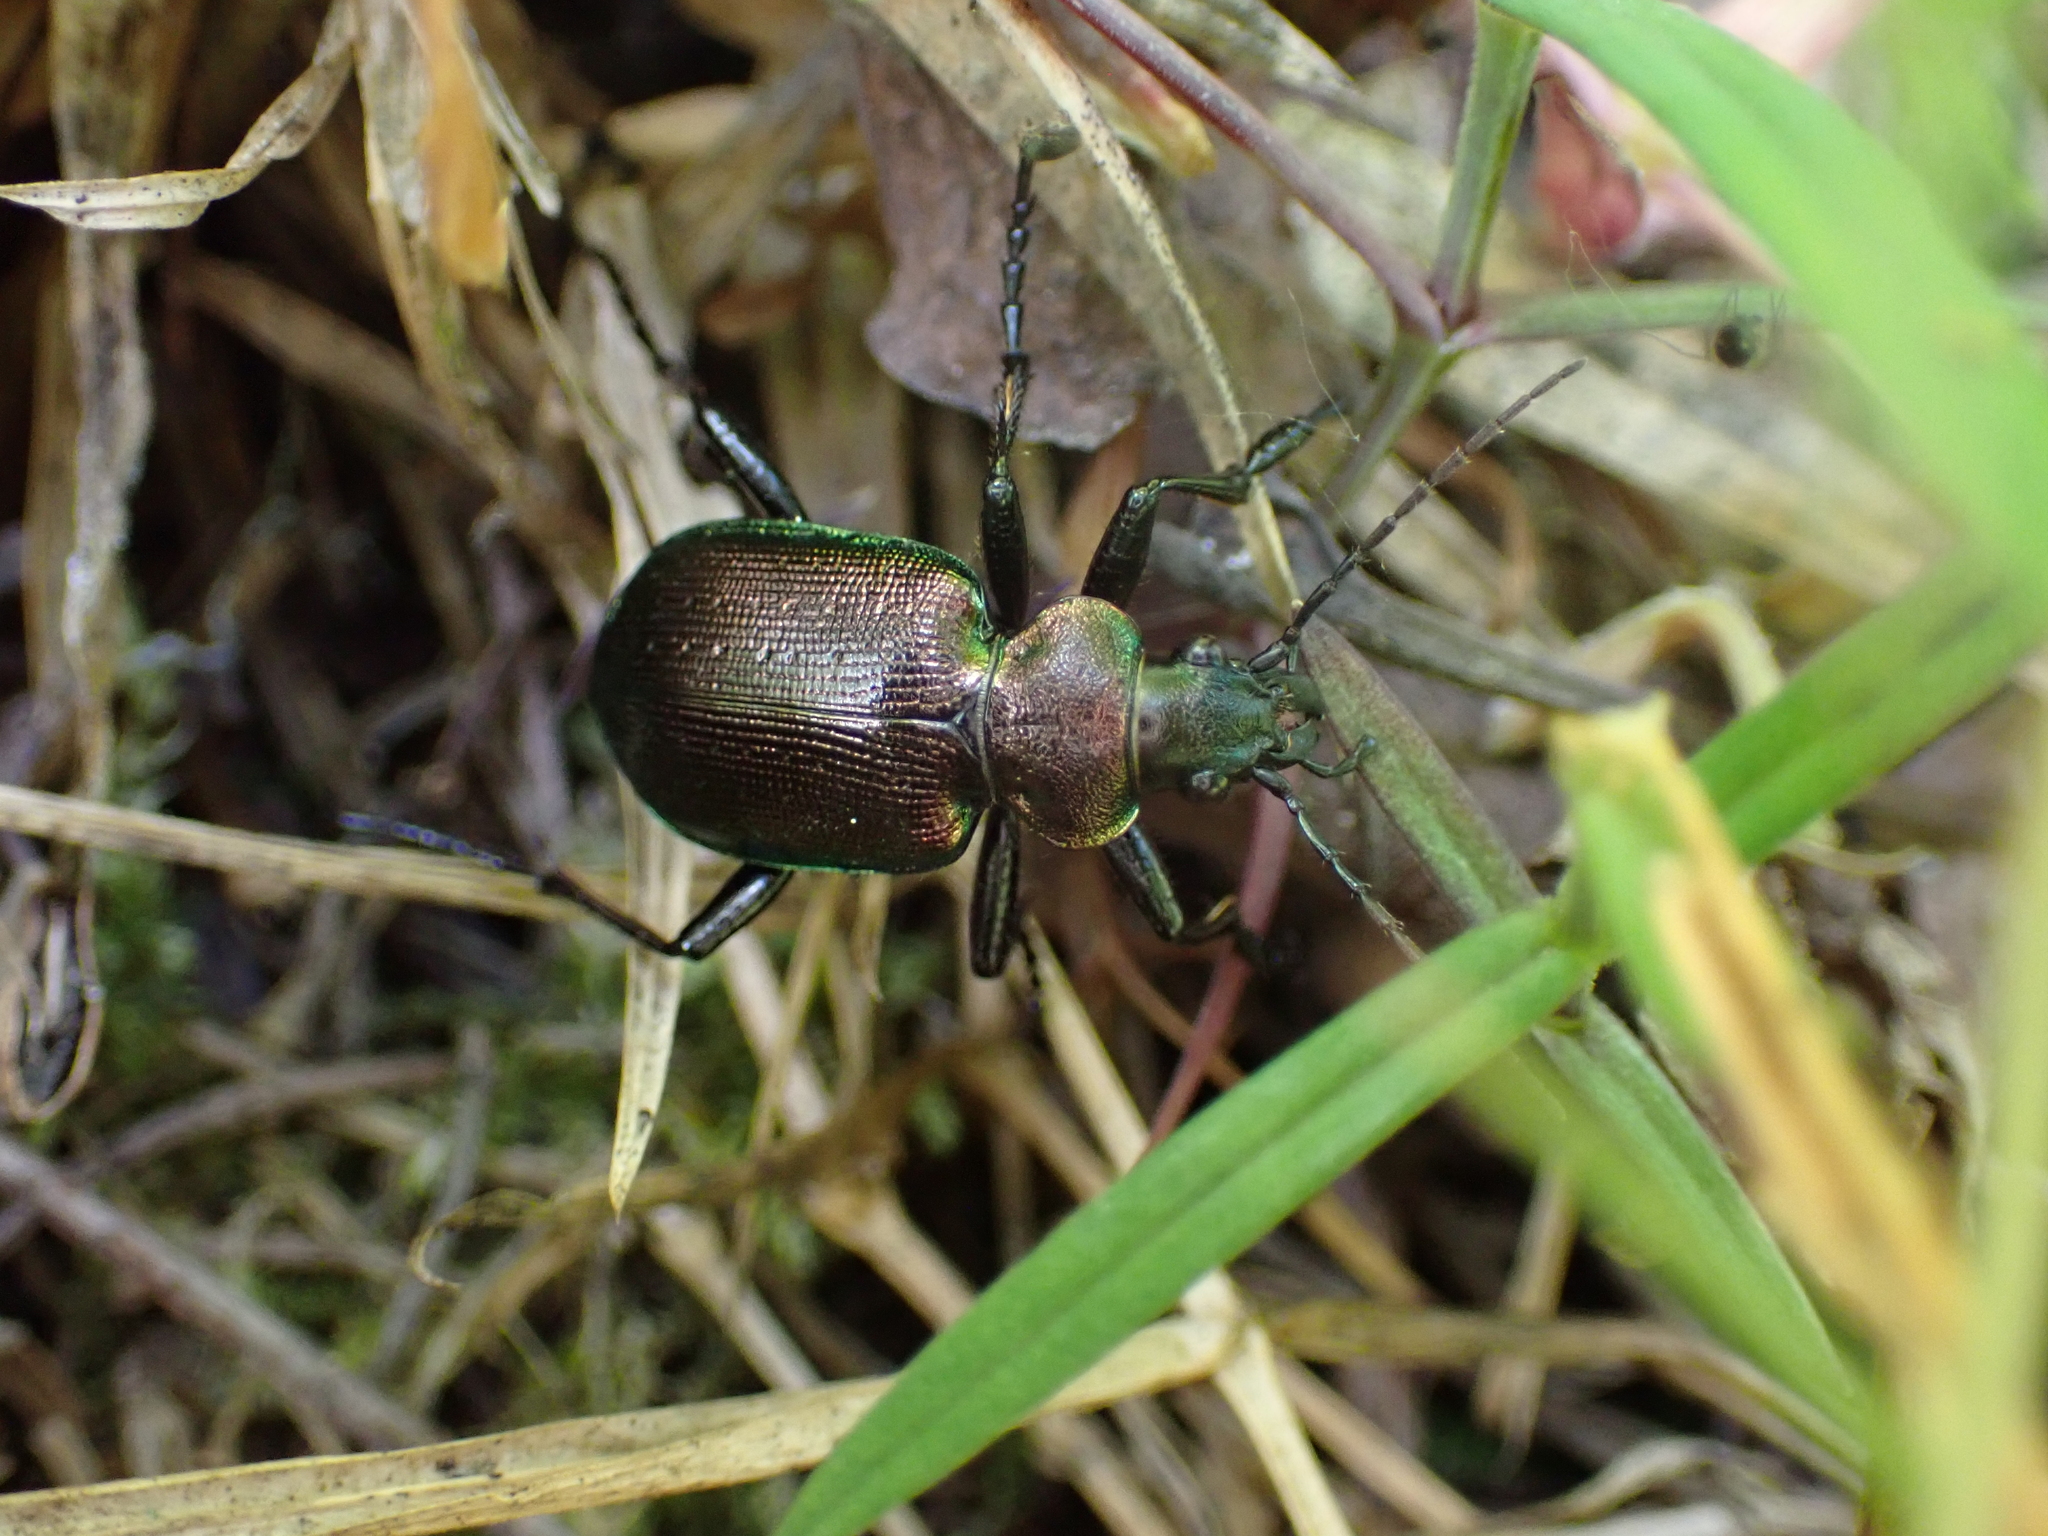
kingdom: Animalia
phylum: Arthropoda
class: Insecta
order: Coleoptera
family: Carabidae
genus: Calosoma
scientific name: Calosoma inquisitor
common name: Caterpillar-hunter
